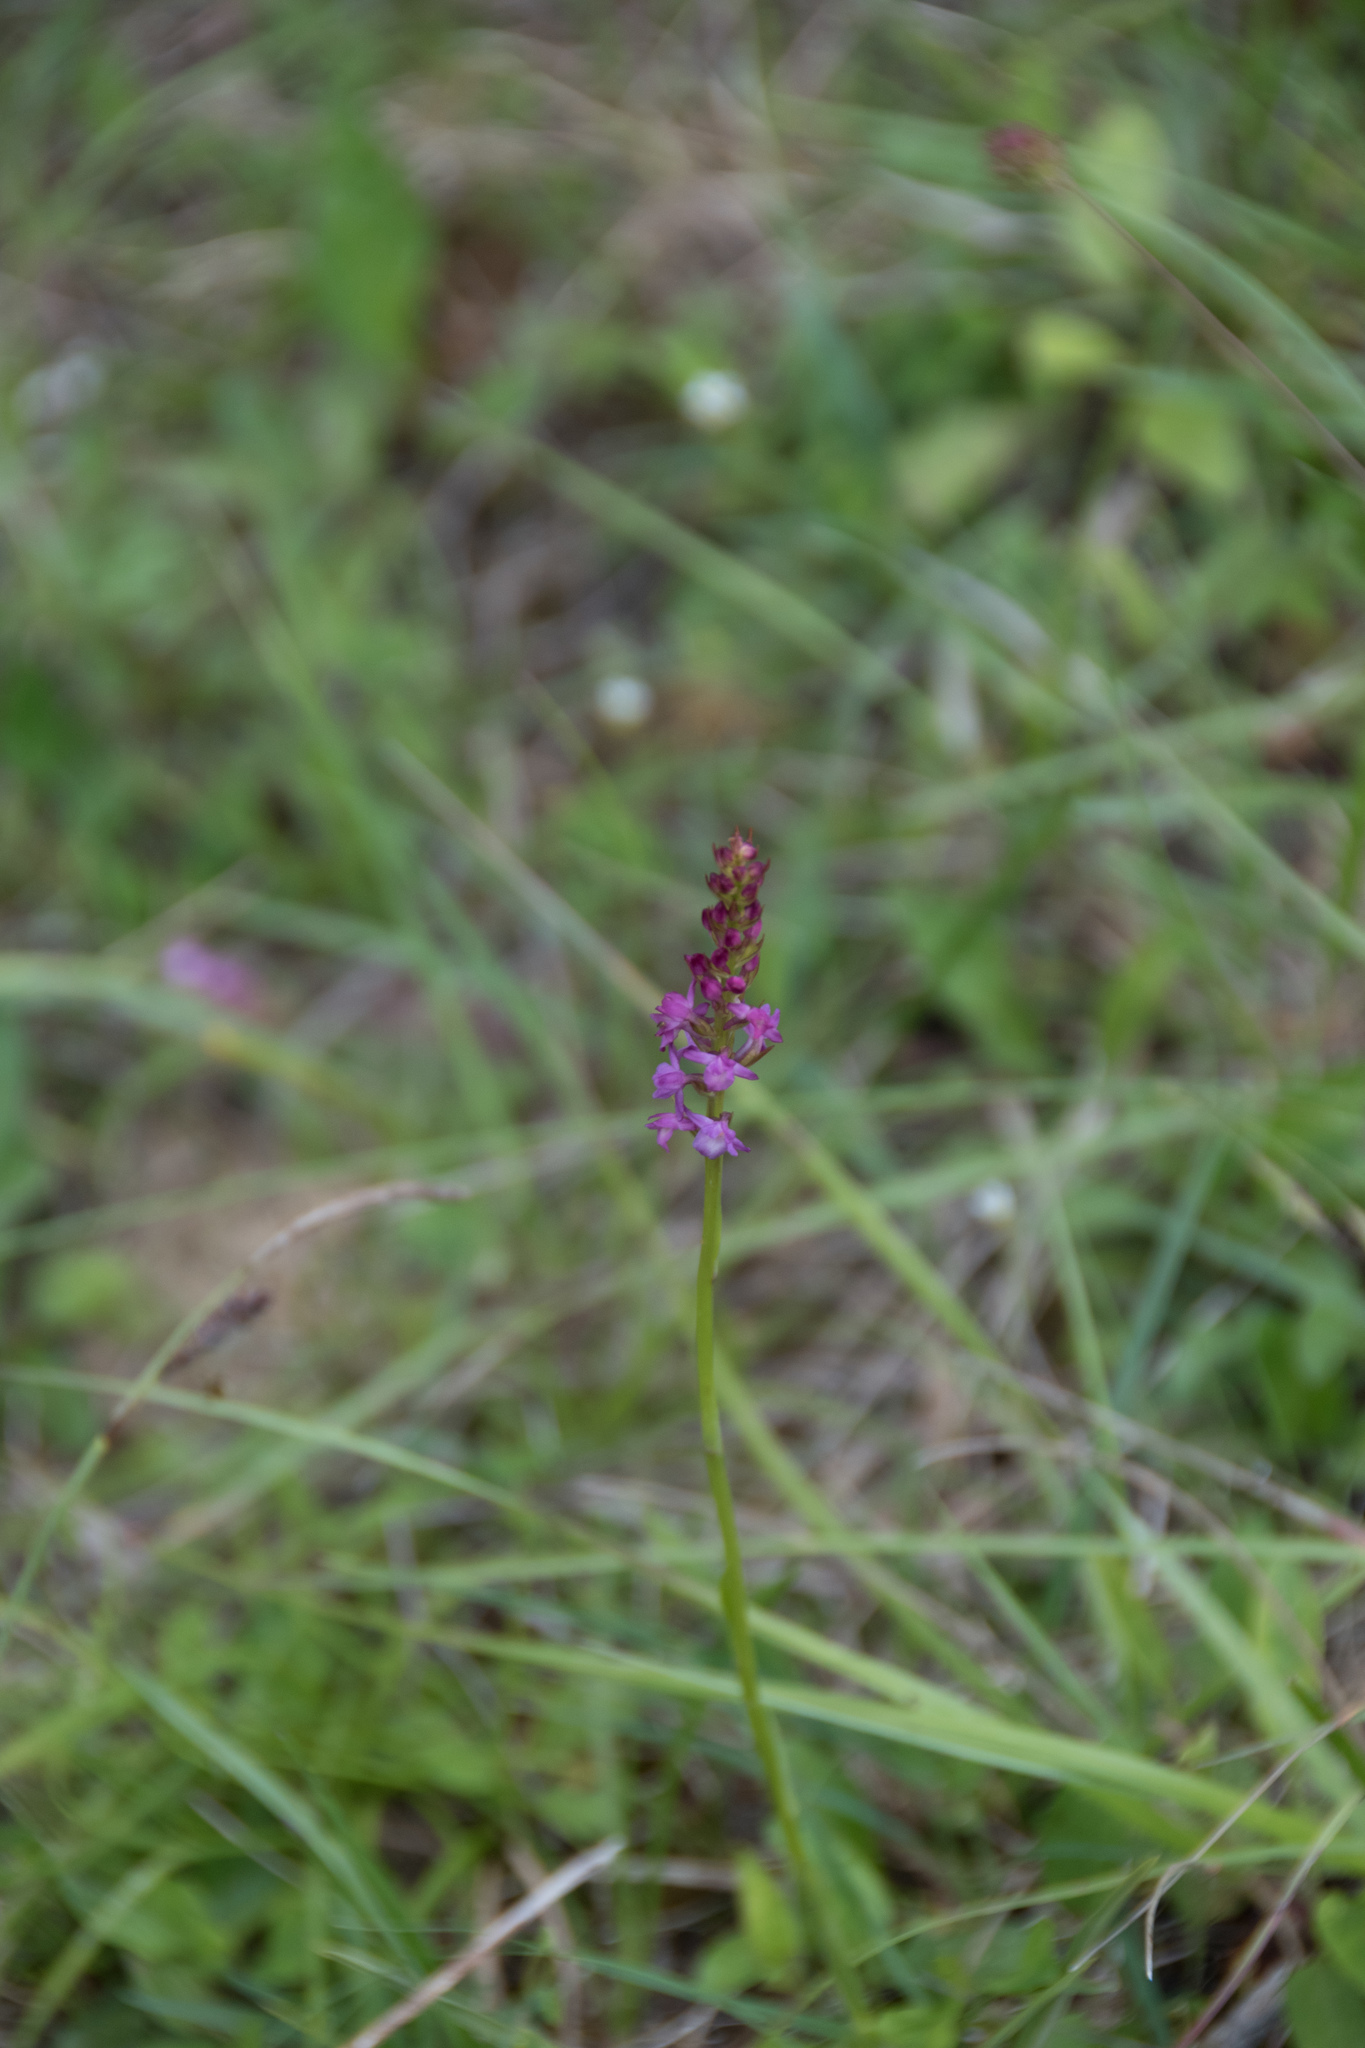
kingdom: Plantae
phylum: Tracheophyta
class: Liliopsida
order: Asparagales
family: Orchidaceae
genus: Gymnadenia
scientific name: Gymnadenia conopsea
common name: Fragrant orchid
